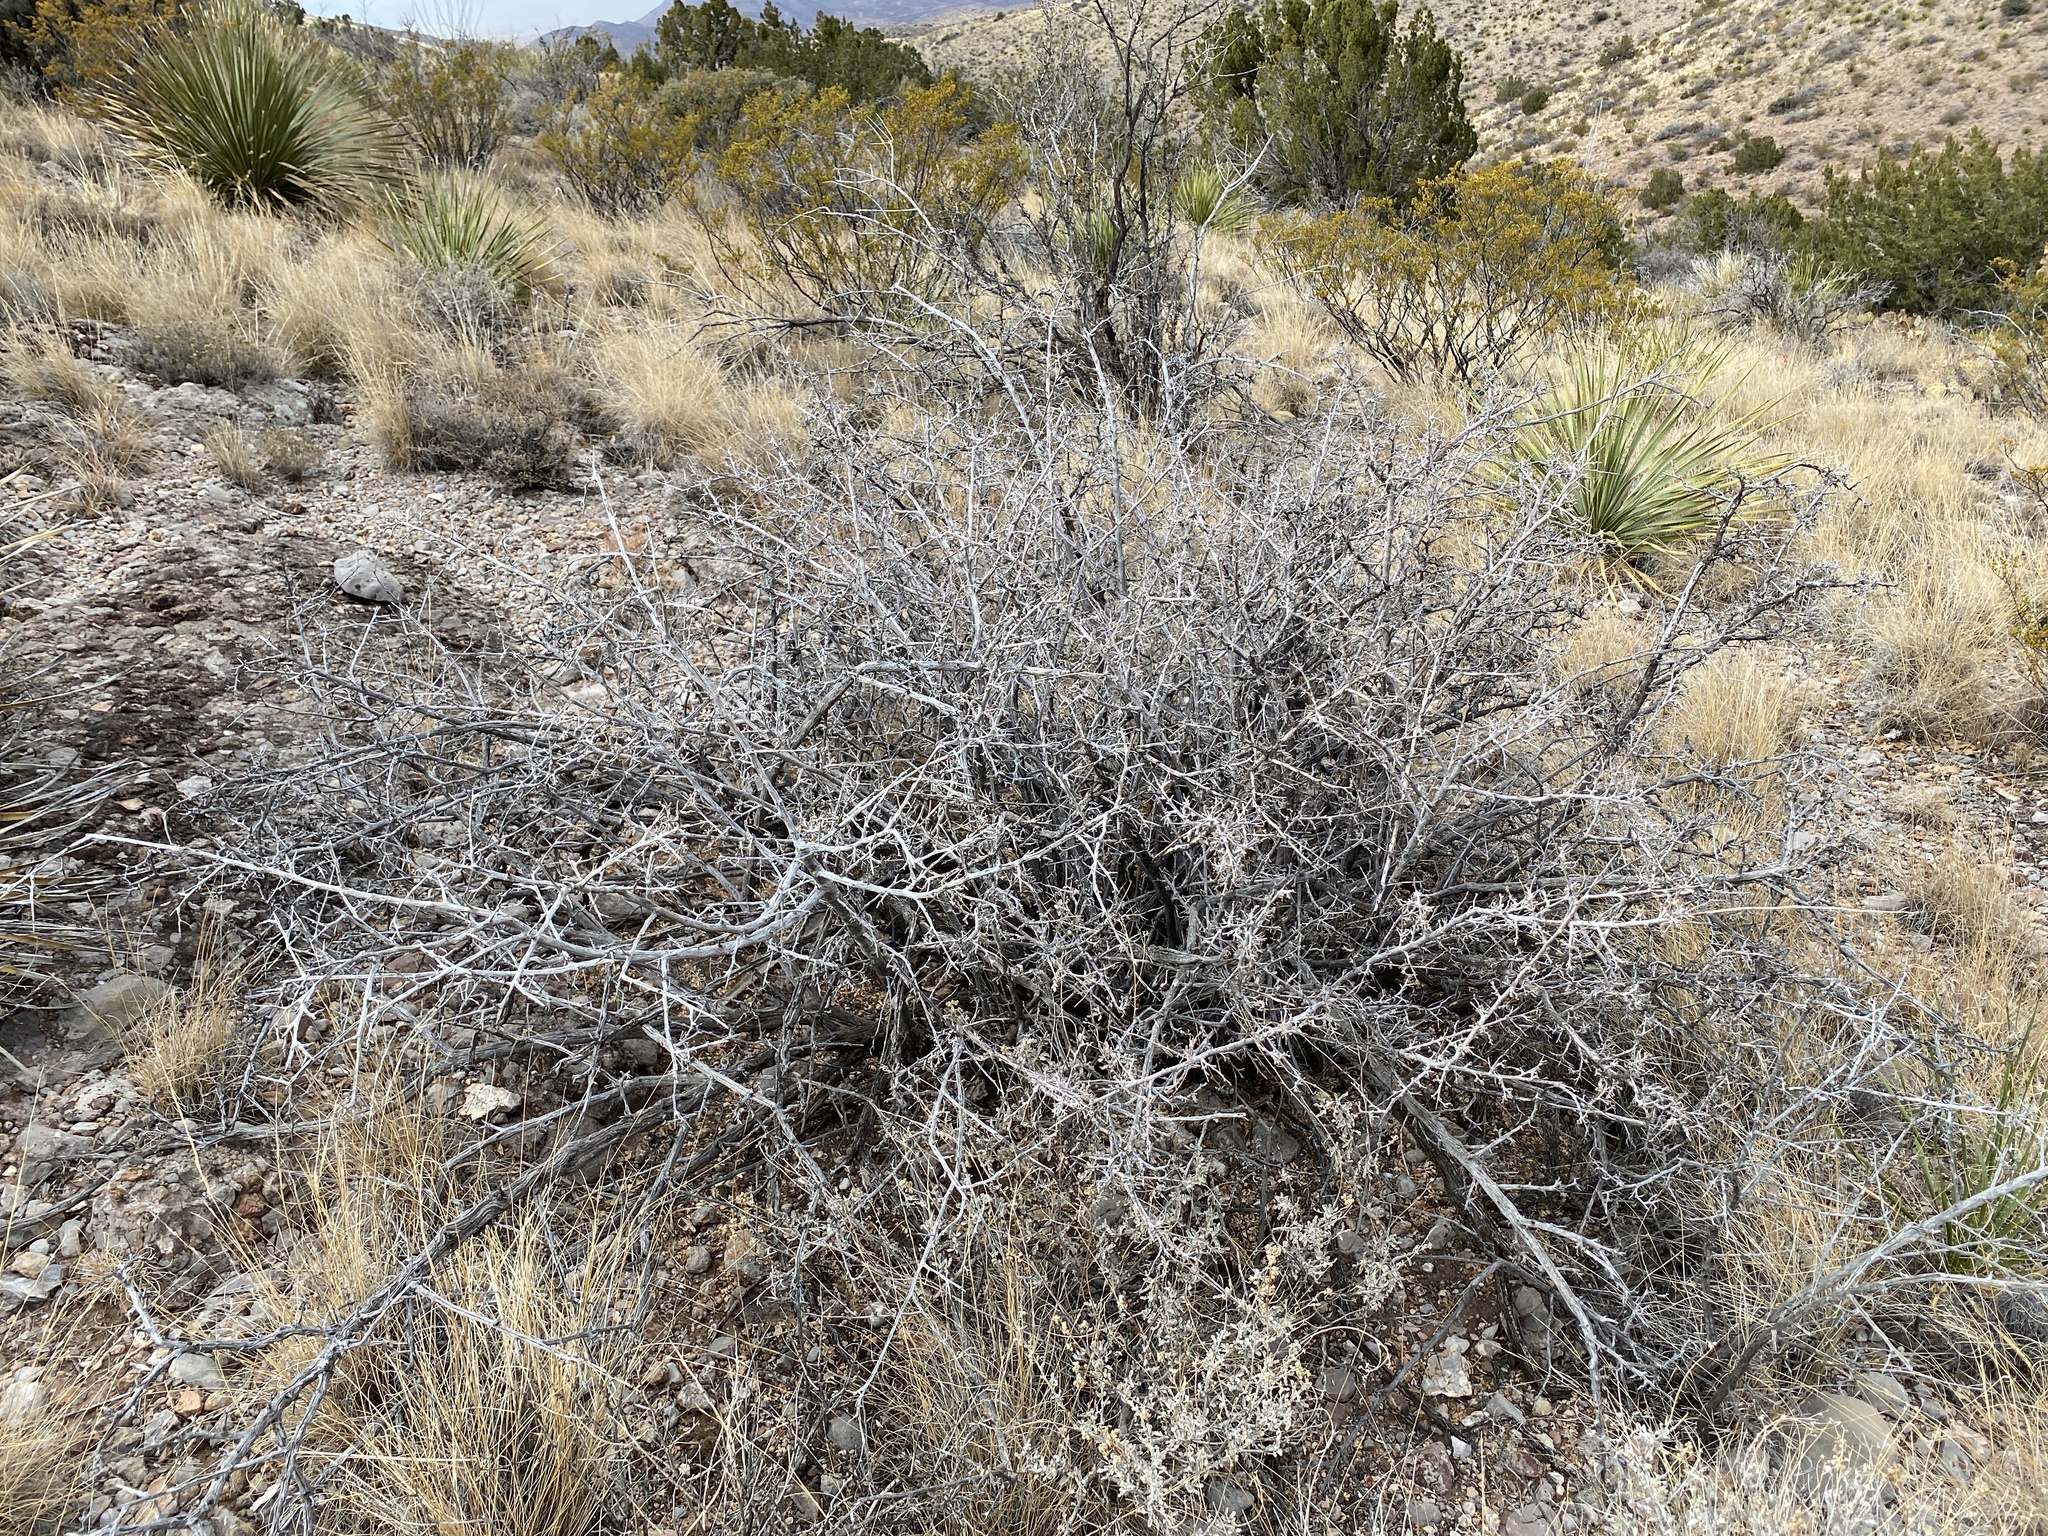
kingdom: Plantae
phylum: Tracheophyta
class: Magnoliopsida
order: Sapindales
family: Anacardiaceae
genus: Rhus
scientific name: Rhus microphylla
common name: Desert sumac
